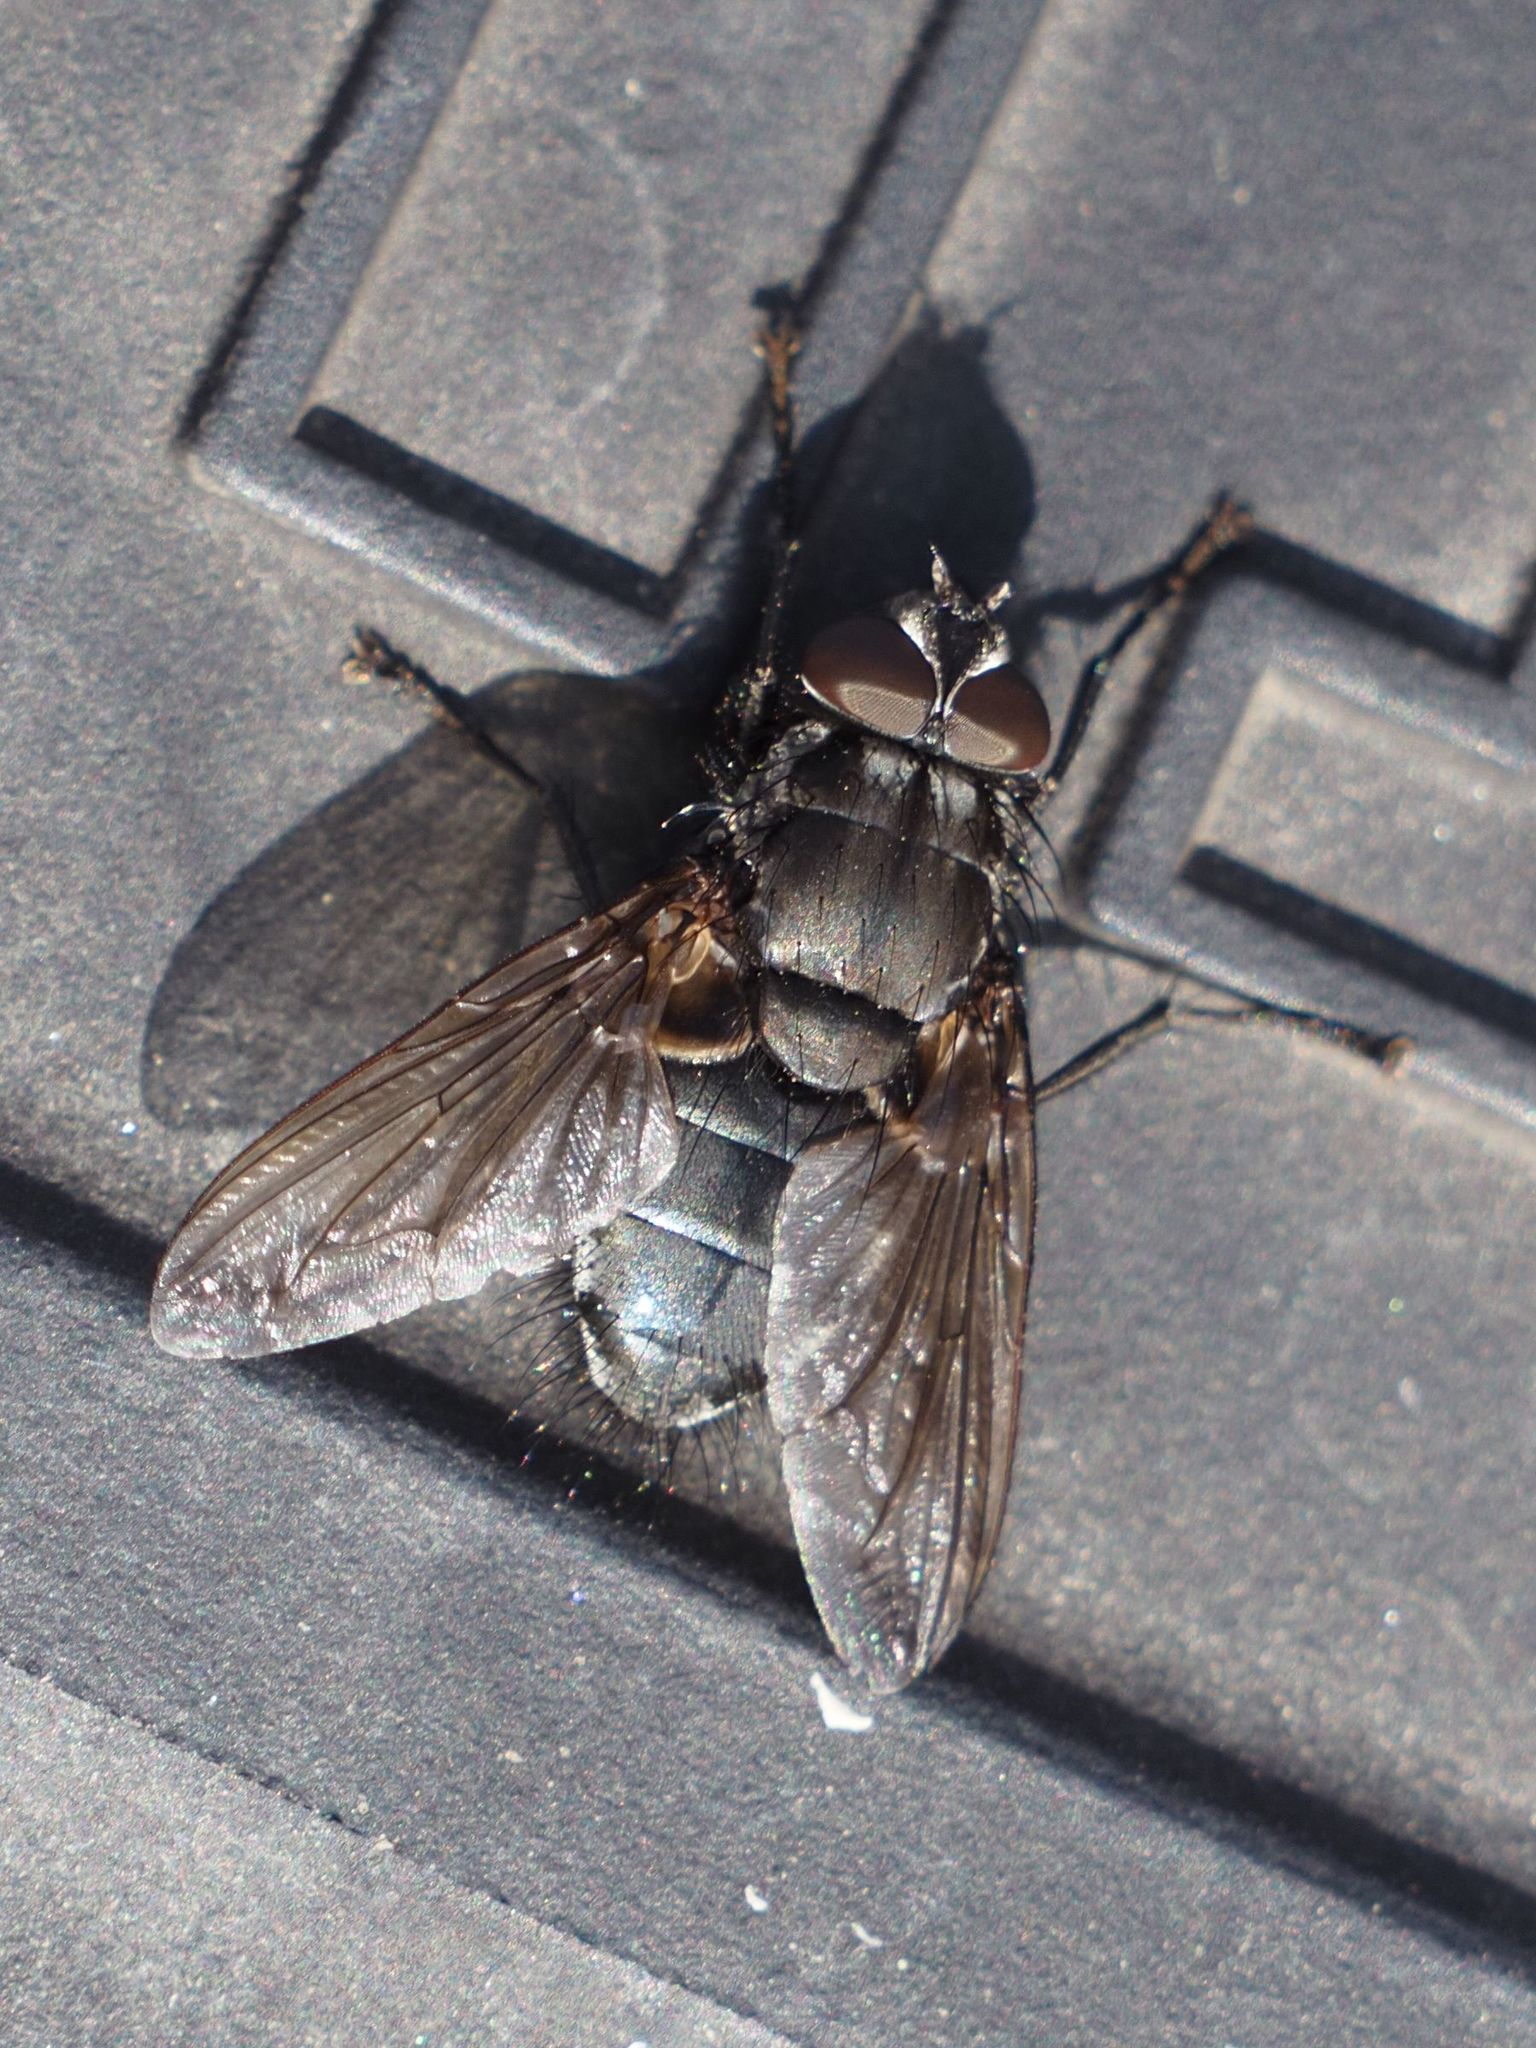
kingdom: Animalia
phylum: Arthropoda
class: Insecta
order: Diptera
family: Polleniidae
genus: Pollenia
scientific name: Pollenia vagabunda
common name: Vagabund cluster fly
